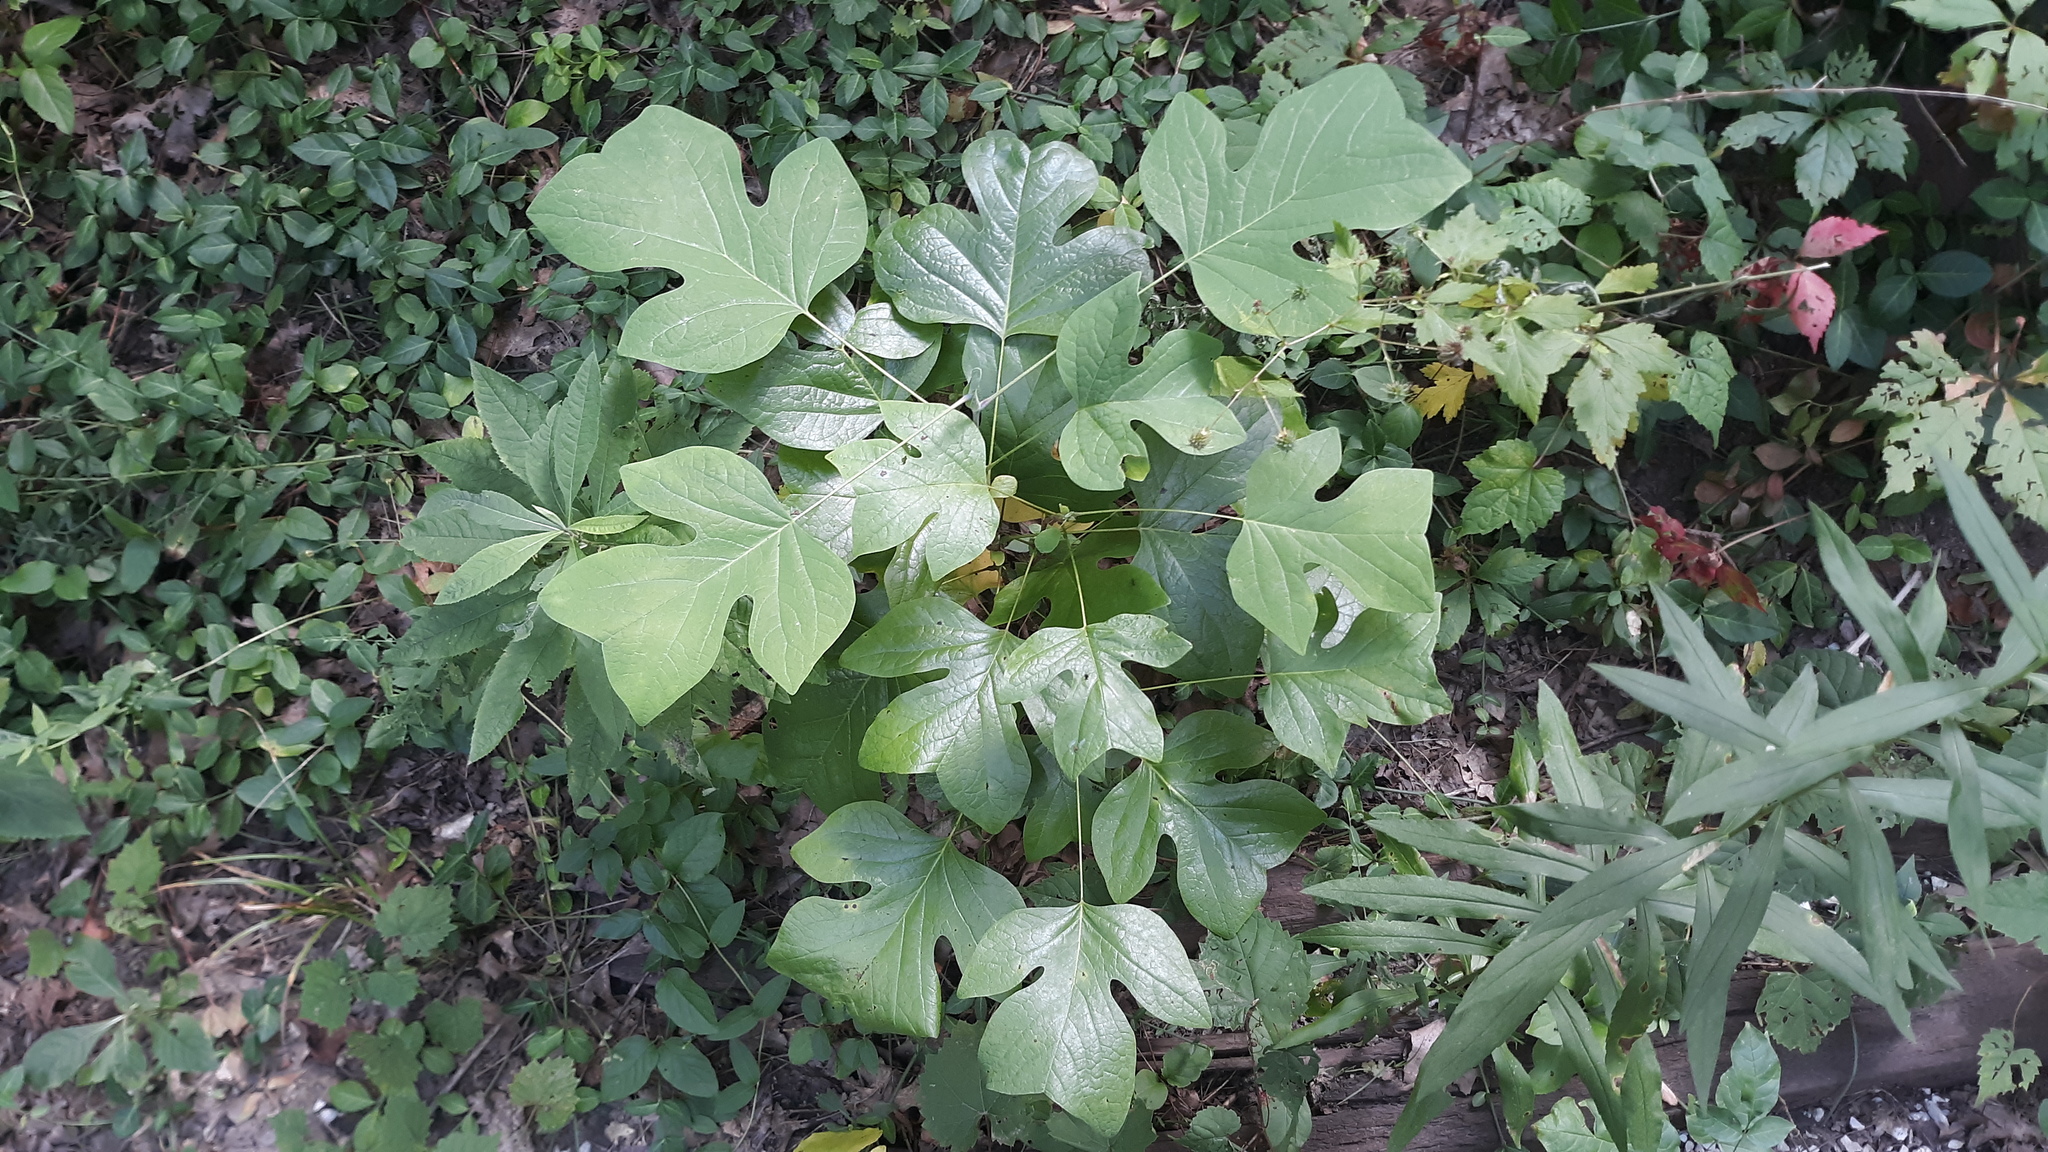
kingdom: Plantae
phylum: Tracheophyta
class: Magnoliopsida
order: Magnoliales
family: Magnoliaceae
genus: Liriodendron
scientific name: Liriodendron tulipifera
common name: Tulip tree
